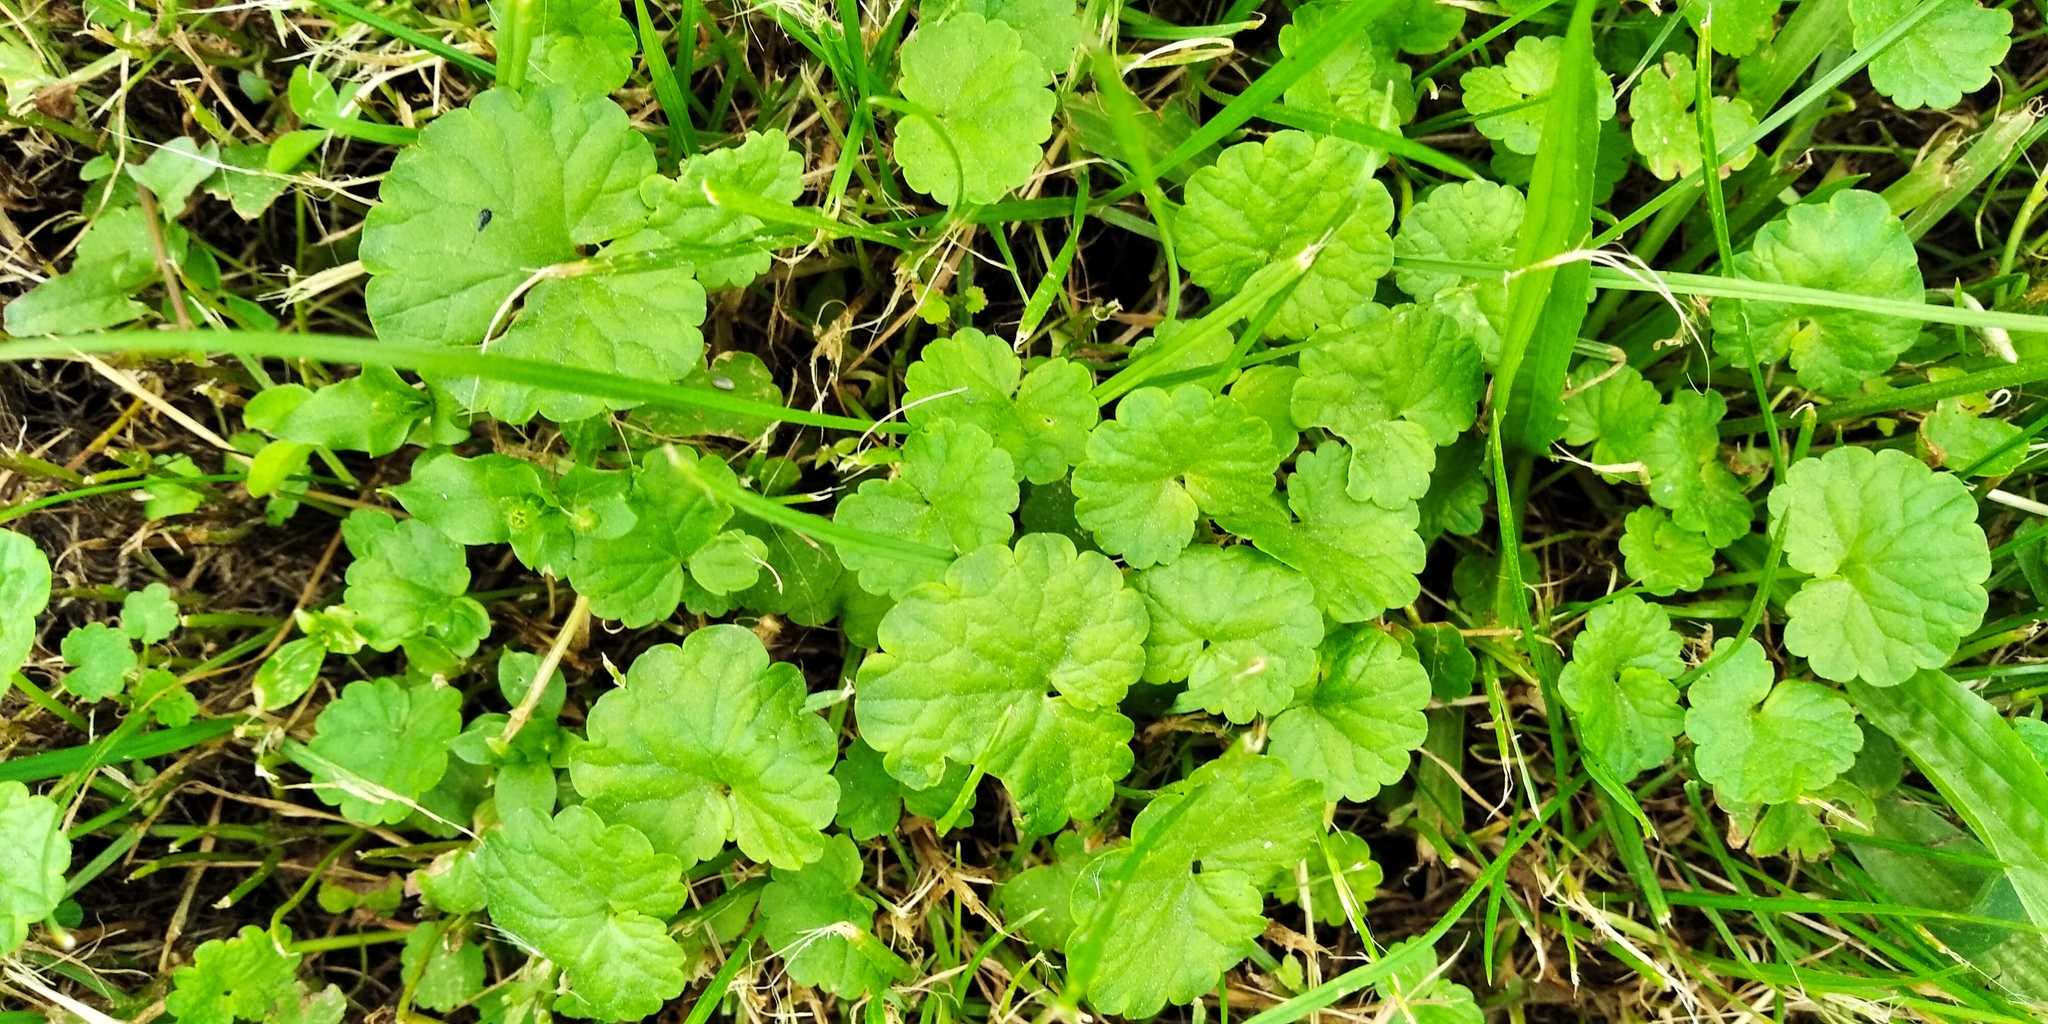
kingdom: Plantae
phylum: Tracheophyta
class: Magnoliopsida
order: Lamiales
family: Lamiaceae
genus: Glechoma
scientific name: Glechoma hederacea
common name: Ground ivy
